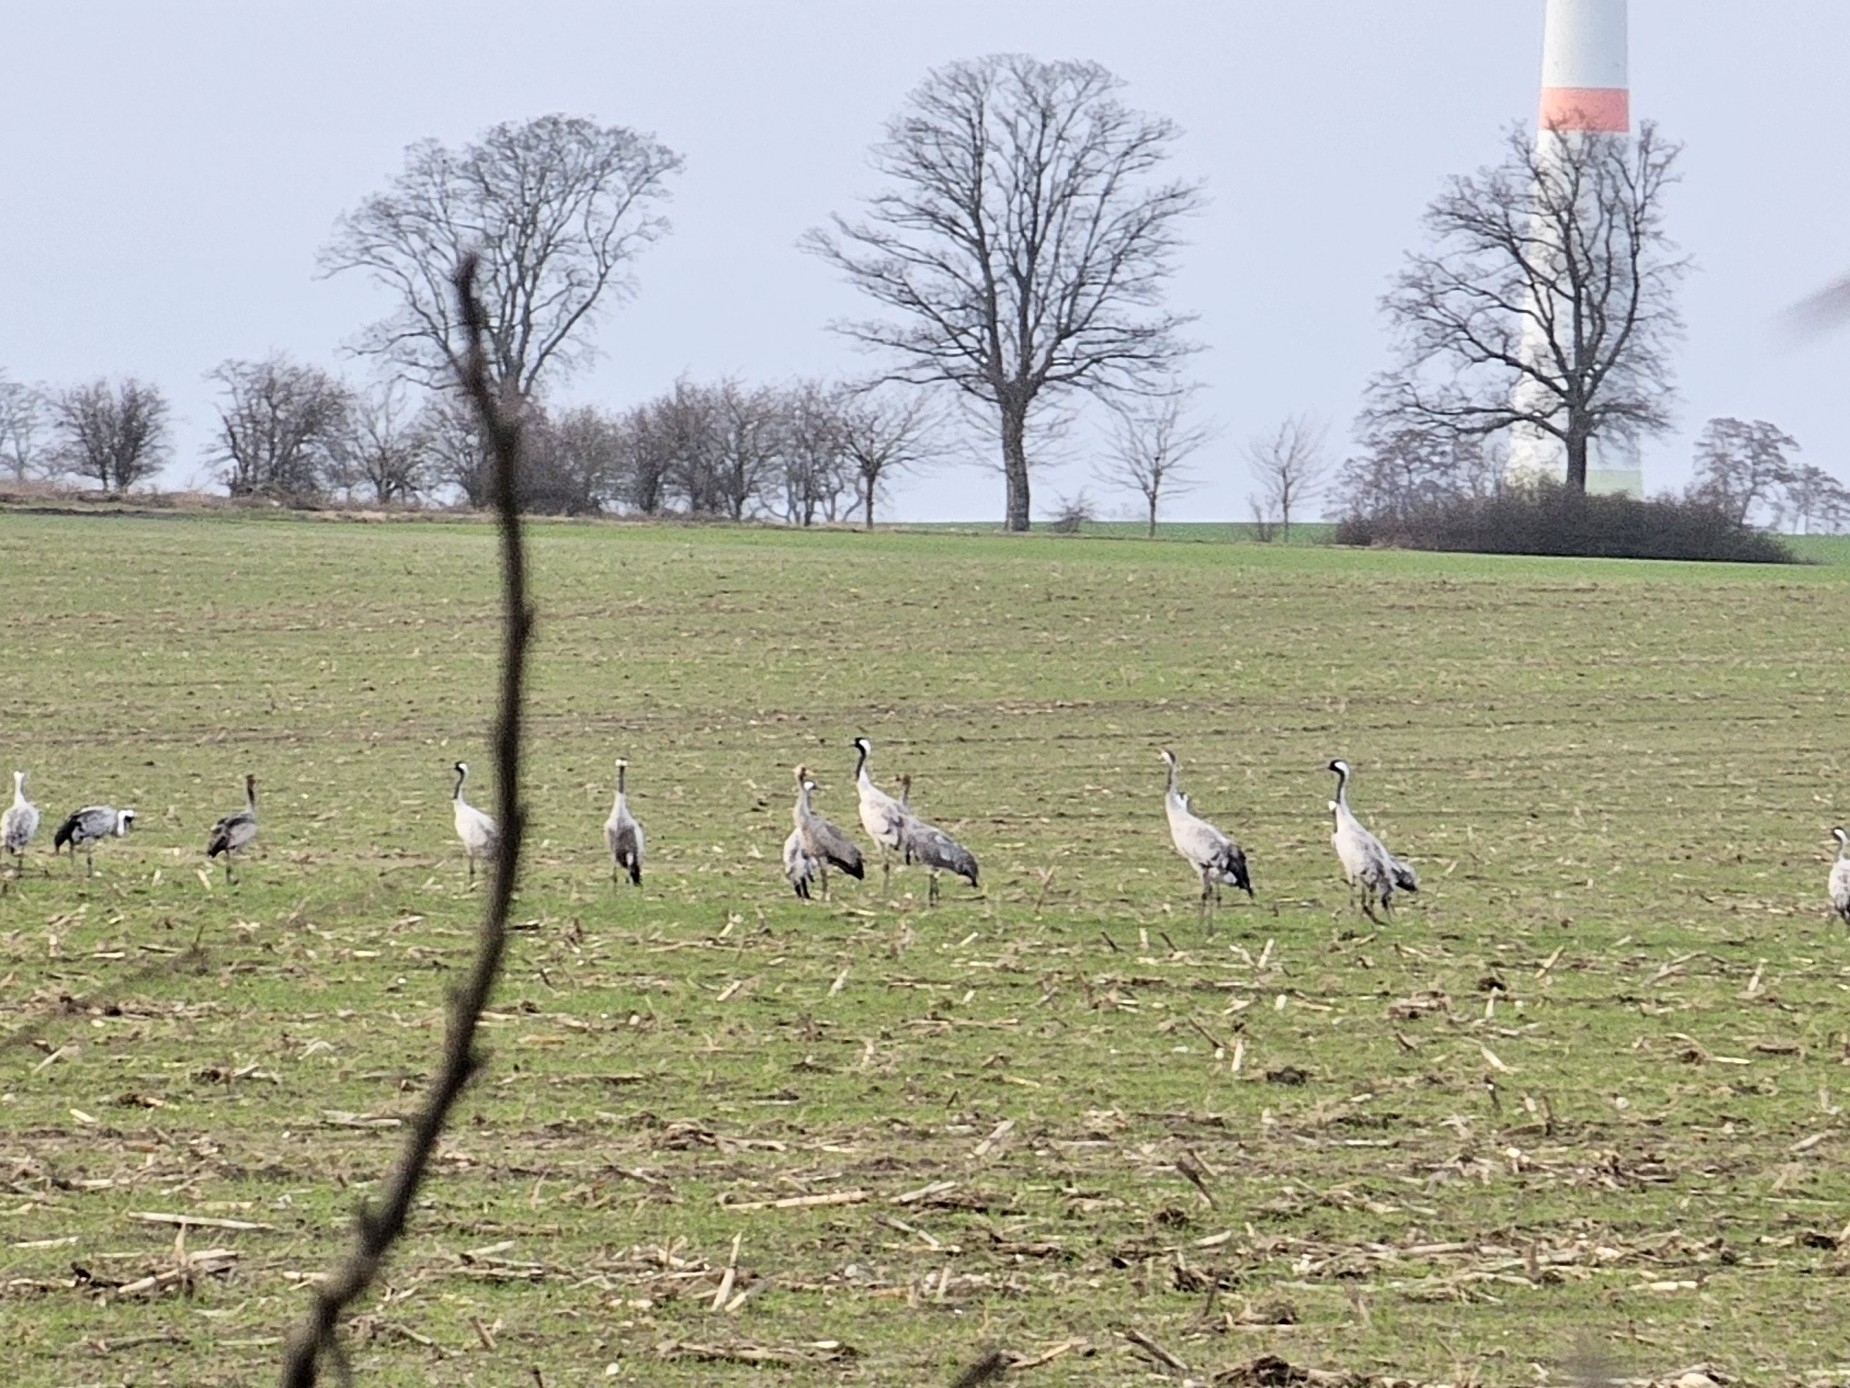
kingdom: Animalia
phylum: Chordata
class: Aves
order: Gruiformes
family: Gruidae
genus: Grus
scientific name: Grus grus
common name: Common crane
